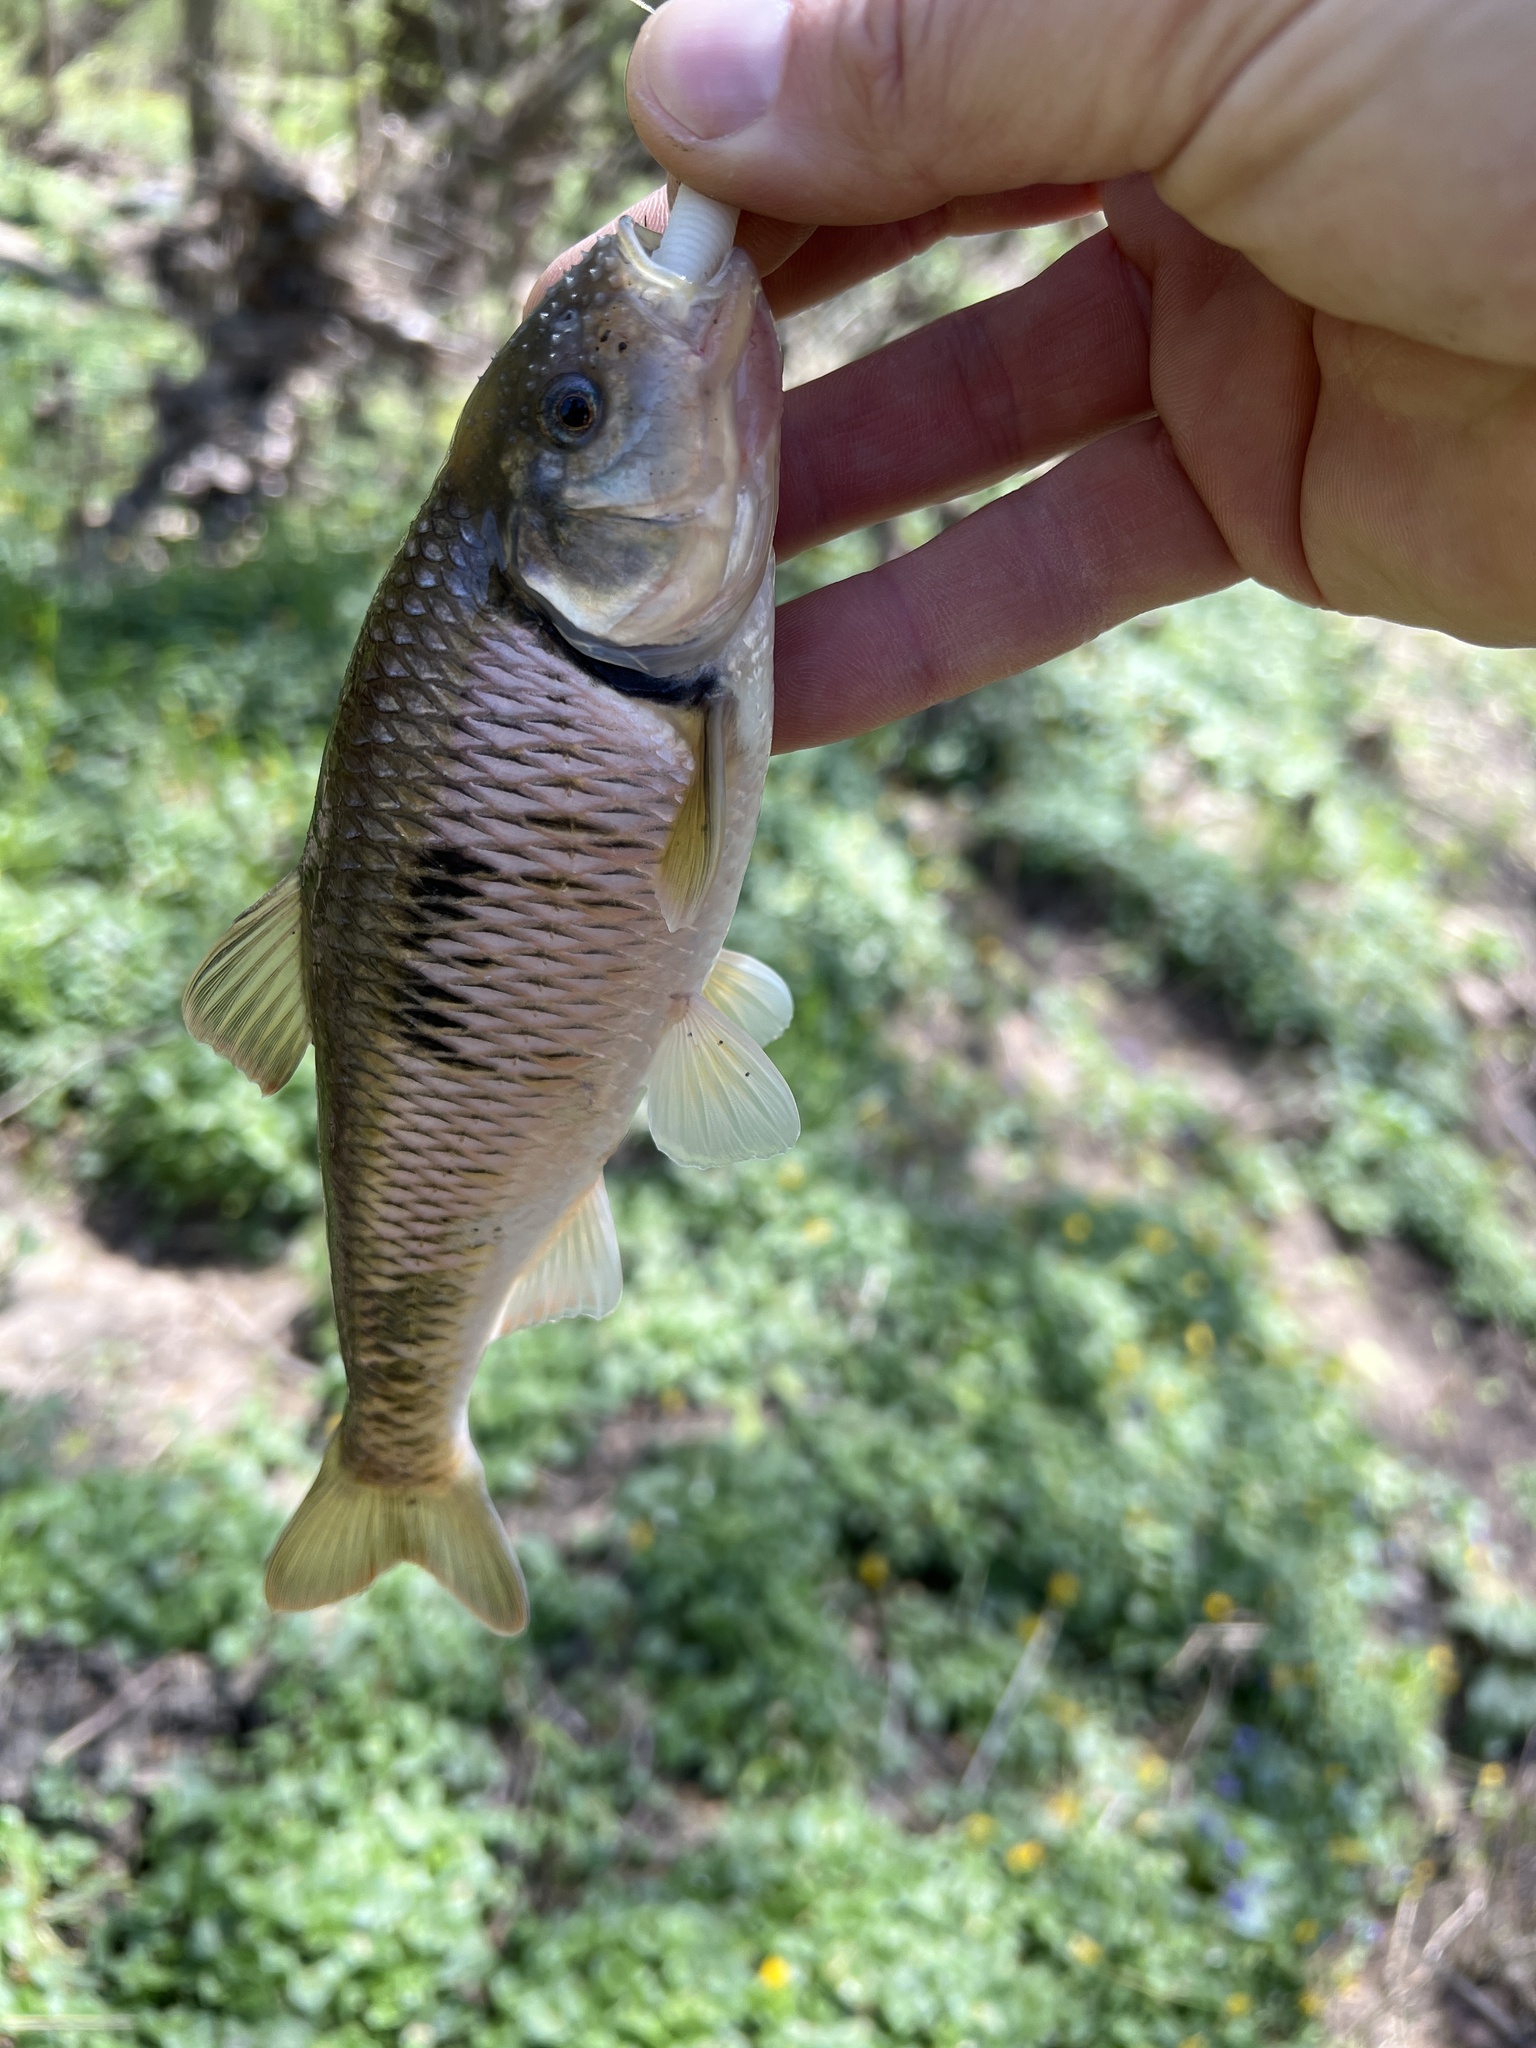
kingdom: Animalia
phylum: Chordata
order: Cypriniformes
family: Cyprinidae
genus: Luxilus
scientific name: Luxilus chrysocephalus
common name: Striped shiner
